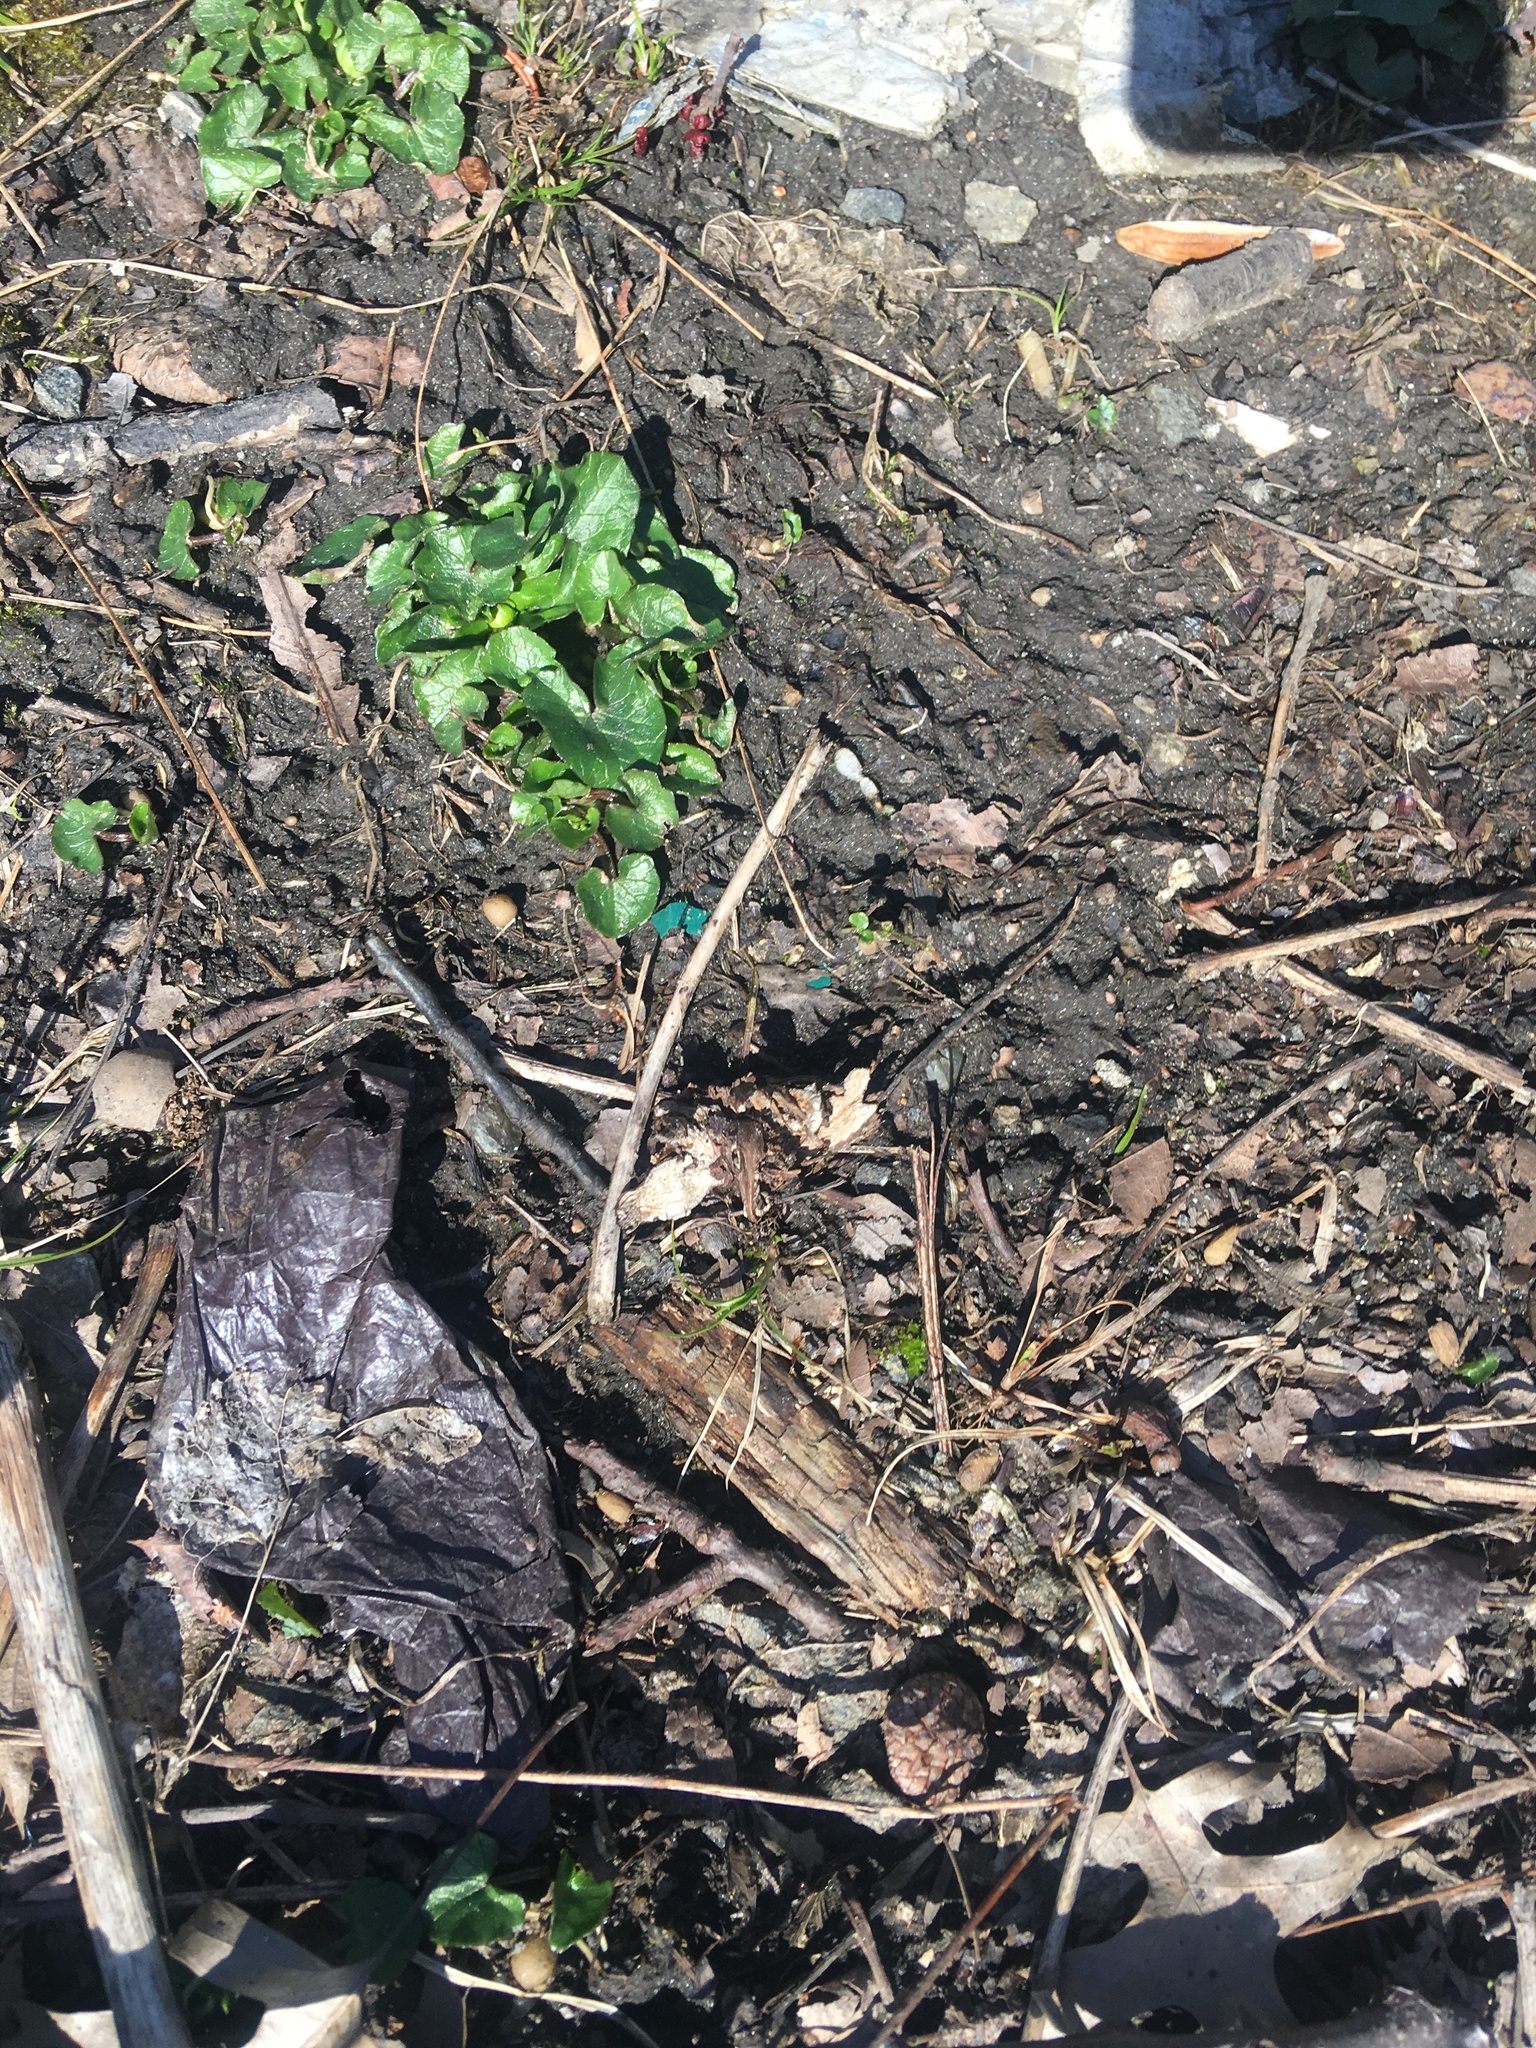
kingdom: Plantae
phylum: Tracheophyta
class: Magnoliopsida
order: Ranunculales
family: Ranunculaceae
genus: Ficaria
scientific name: Ficaria verna
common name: Lesser celandine
